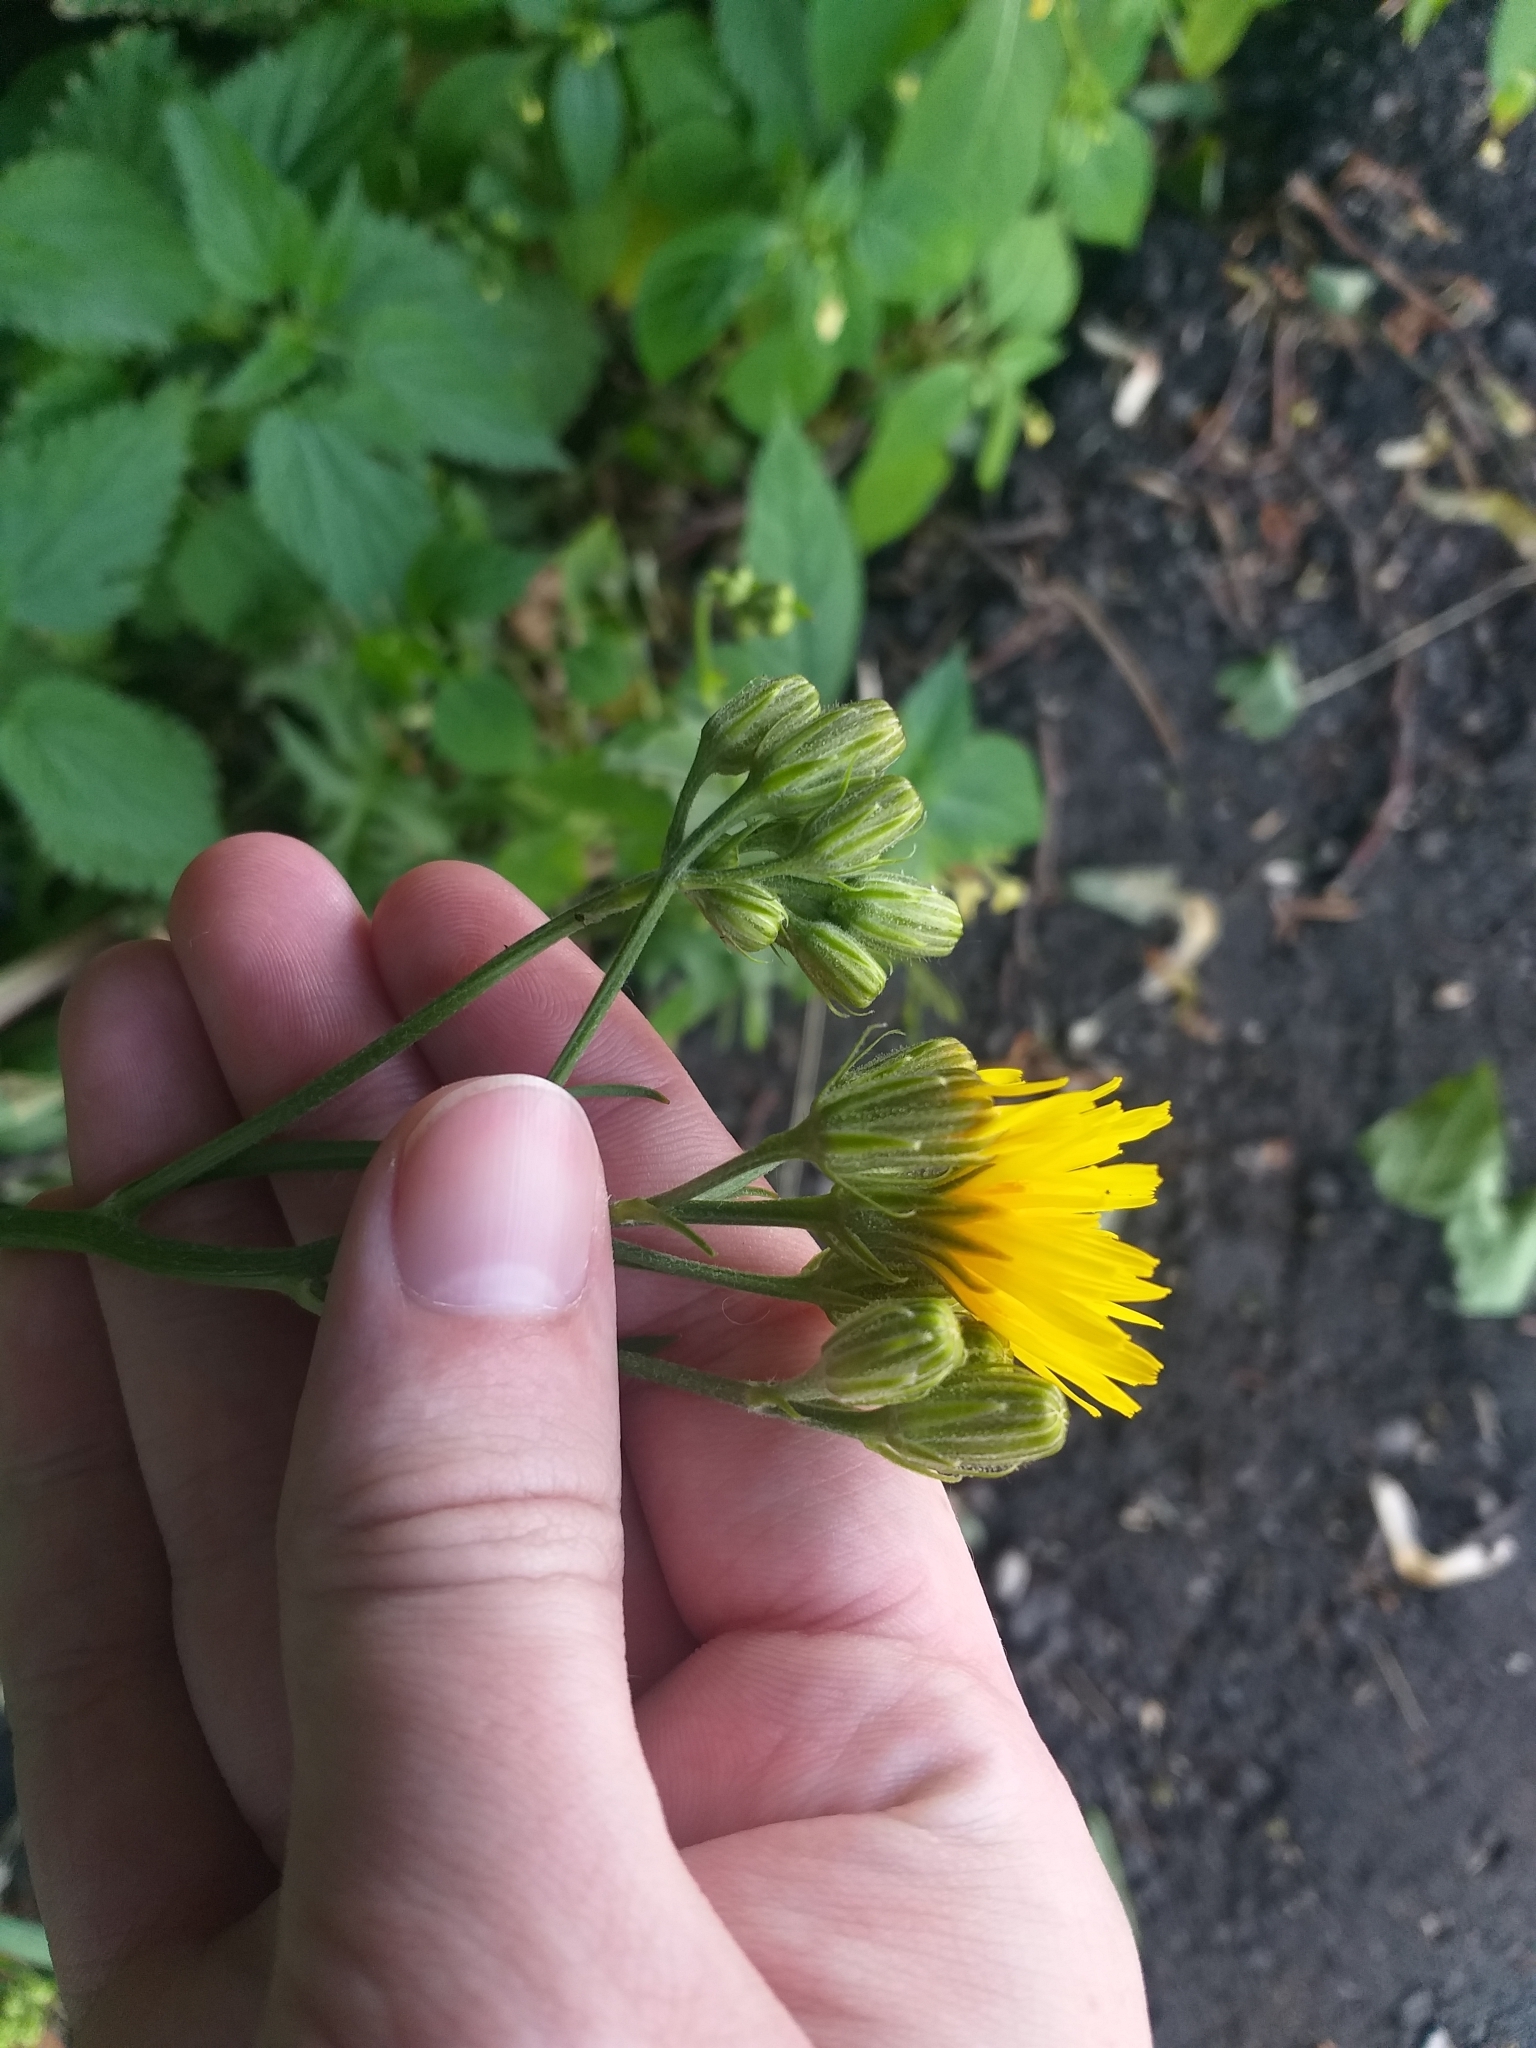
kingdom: Plantae
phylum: Tracheophyta
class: Magnoliopsida
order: Asterales
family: Asteraceae
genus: Crepis
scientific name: Crepis biennis
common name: Rough hawk's-beard
